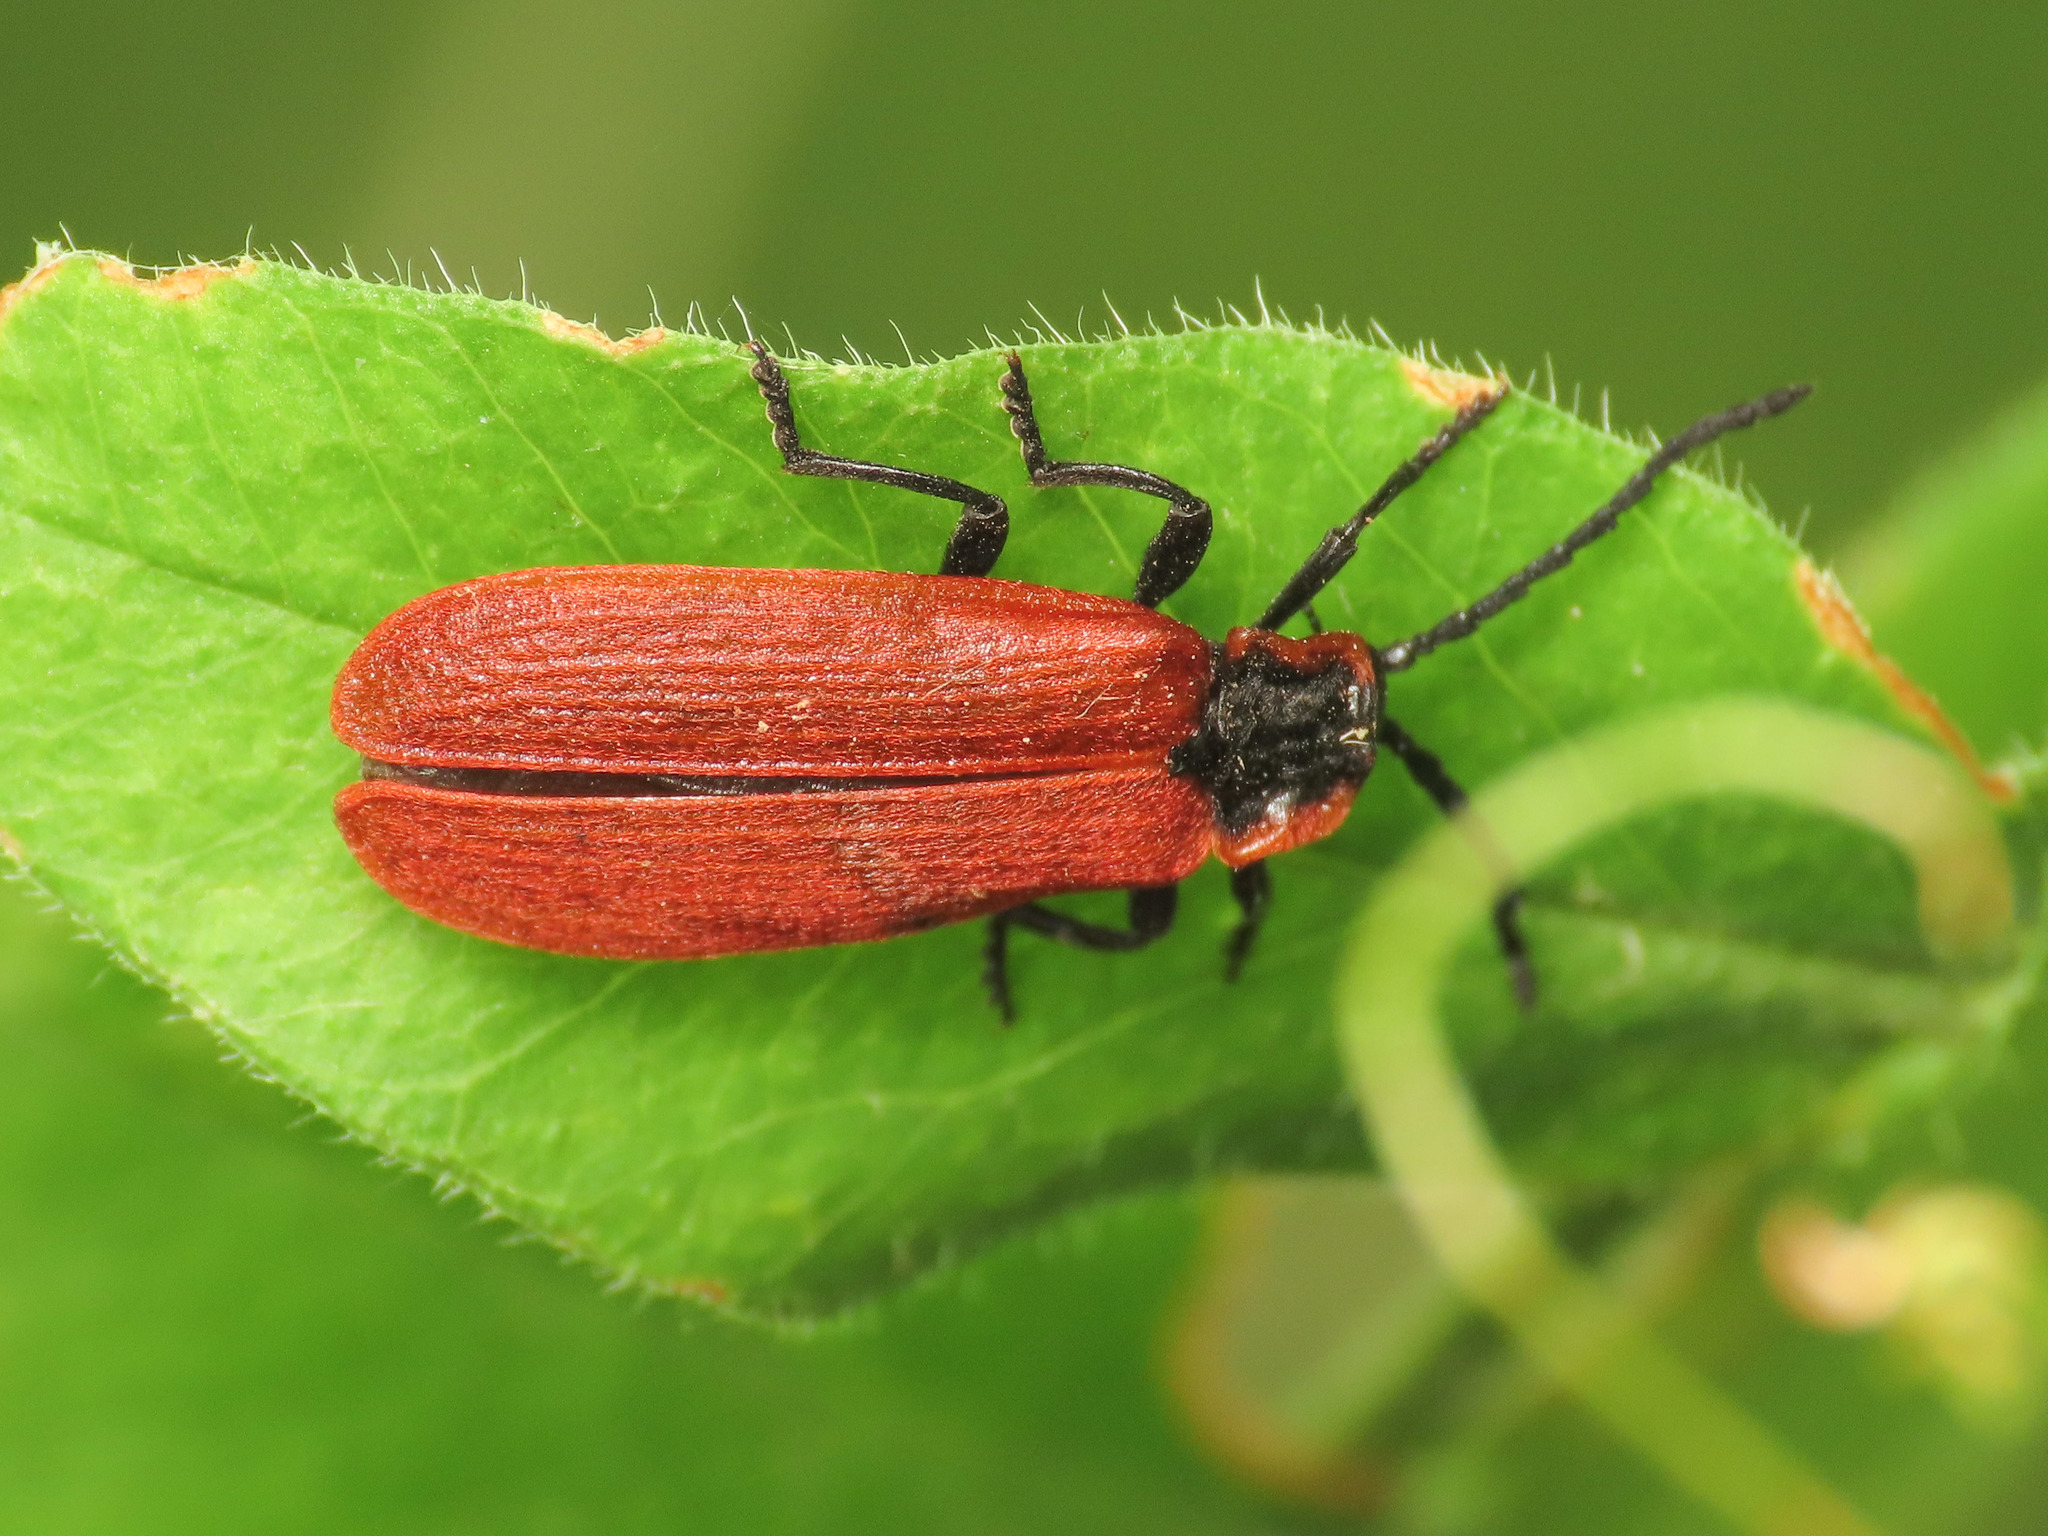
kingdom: Animalia
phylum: Arthropoda
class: Insecta
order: Coleoptera
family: Lycidae
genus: Lygistopterus
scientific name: Lygistopterus anorachilus
